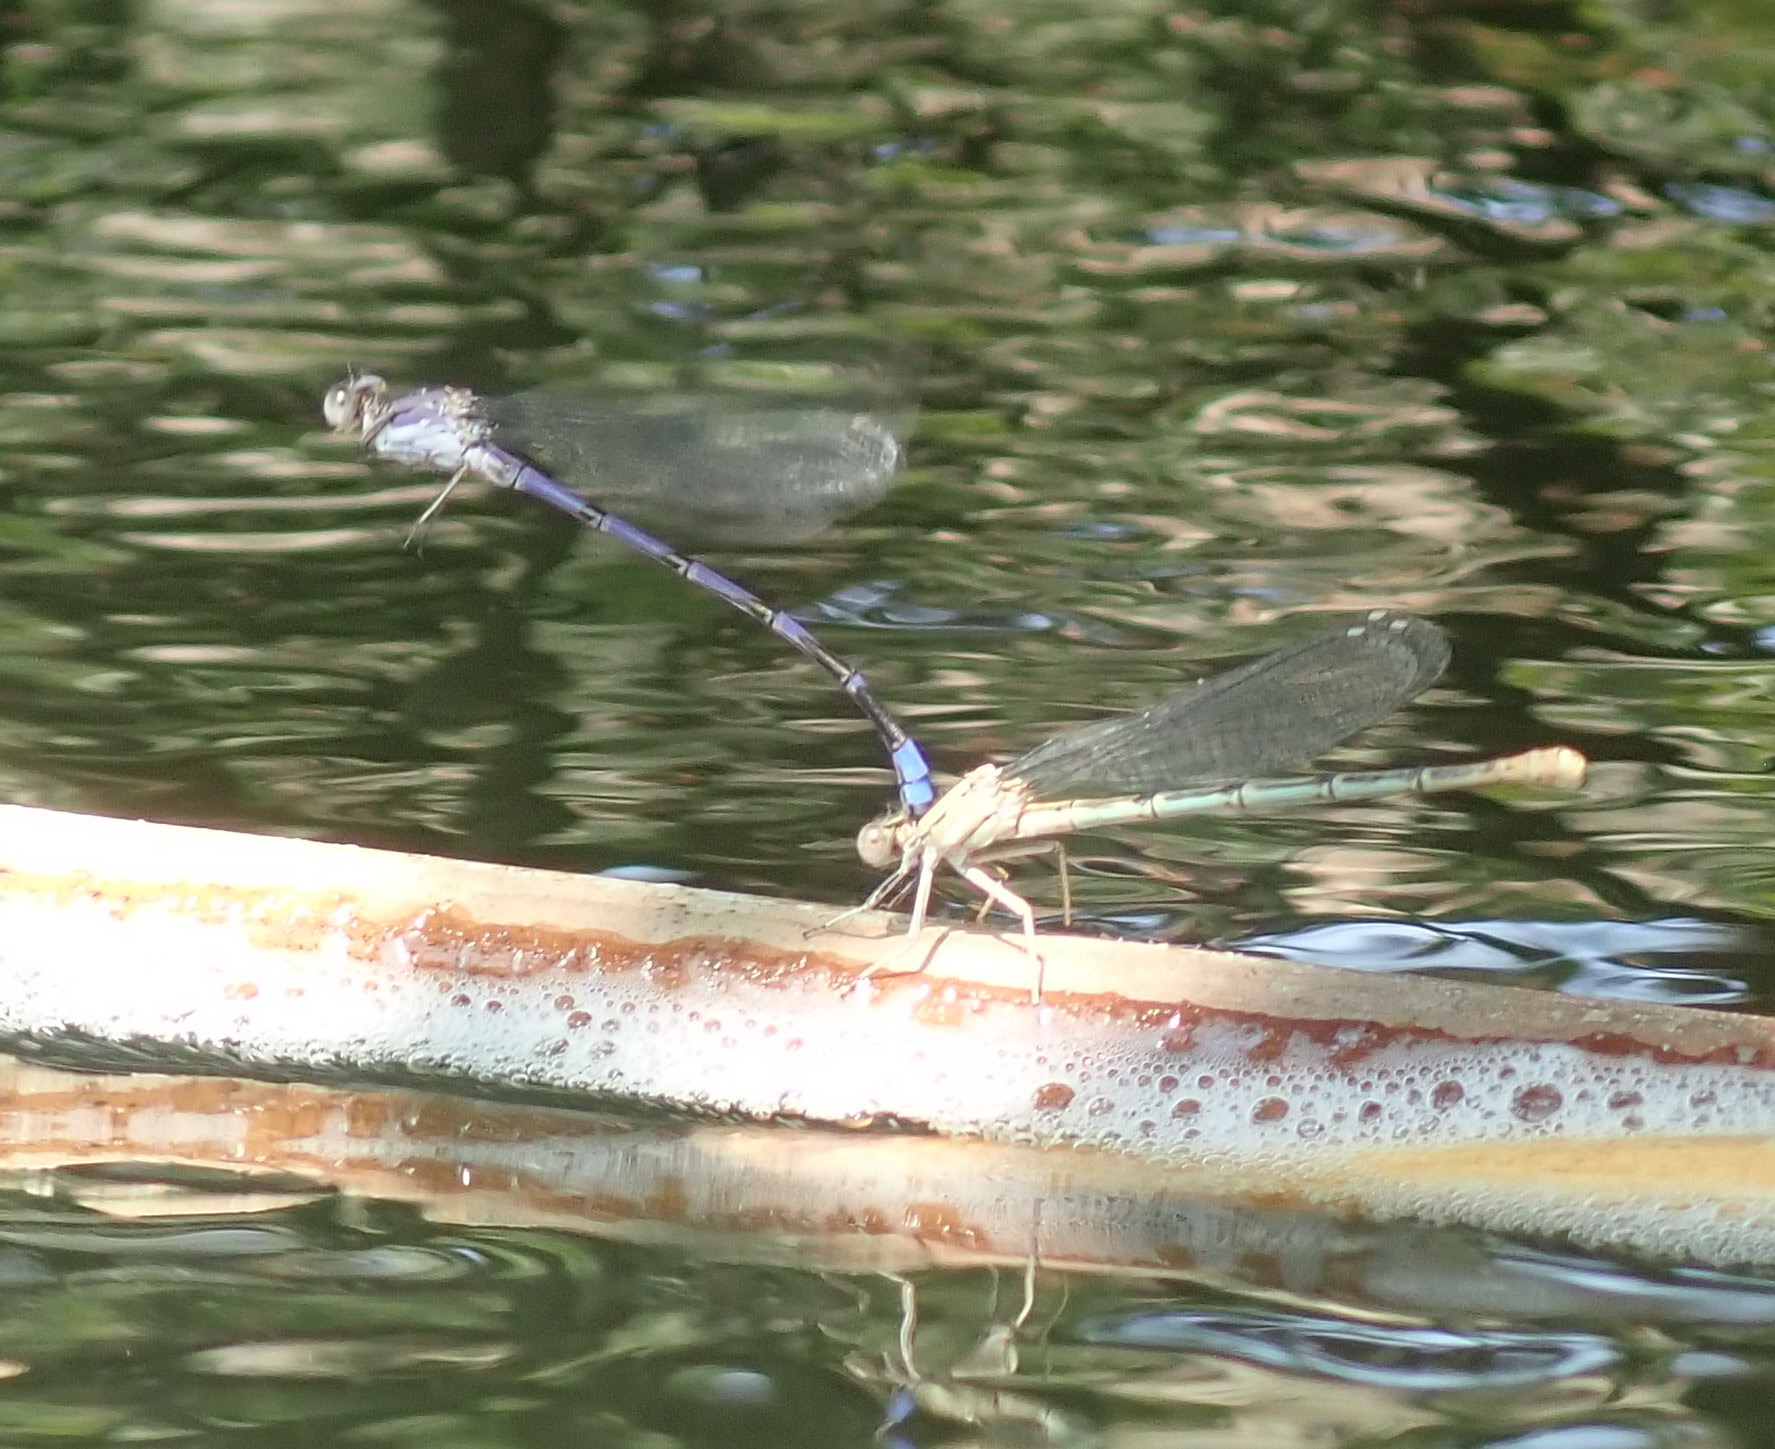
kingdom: Animalia
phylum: Arthropoda
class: Insecta
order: Odonata
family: Coenagrionidae
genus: Argia
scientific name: Argia emma
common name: Emma's dancer
